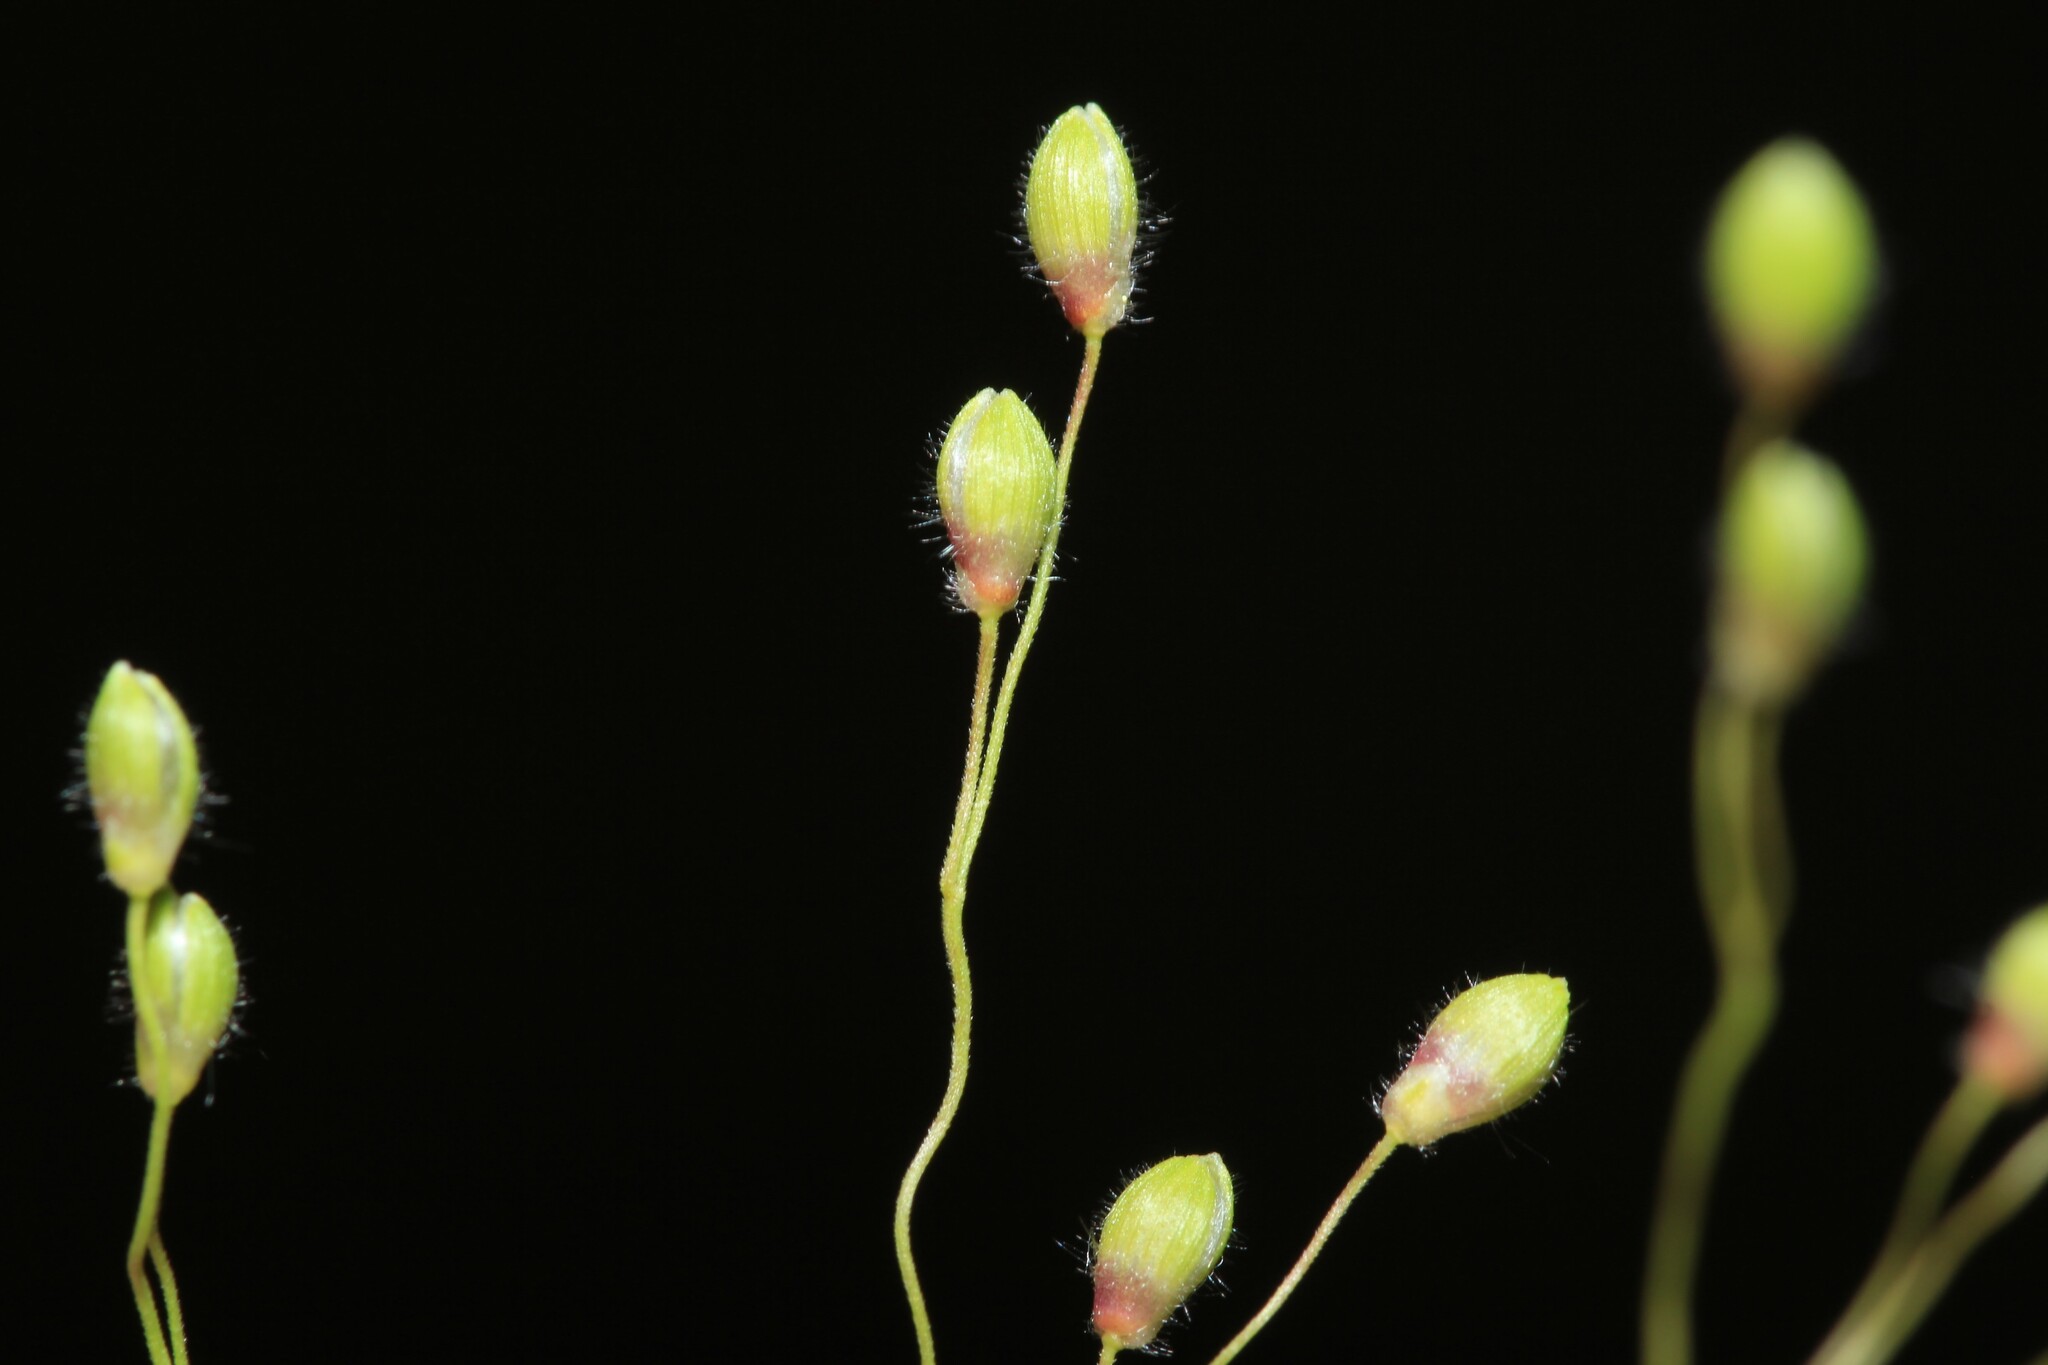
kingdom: Plantae
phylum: Tracheophyta
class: Liliopsida
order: Poales
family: Poaceae
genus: Dichanthelium
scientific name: Dichanthelium linearifolium
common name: Linear-leaved panicgrass
